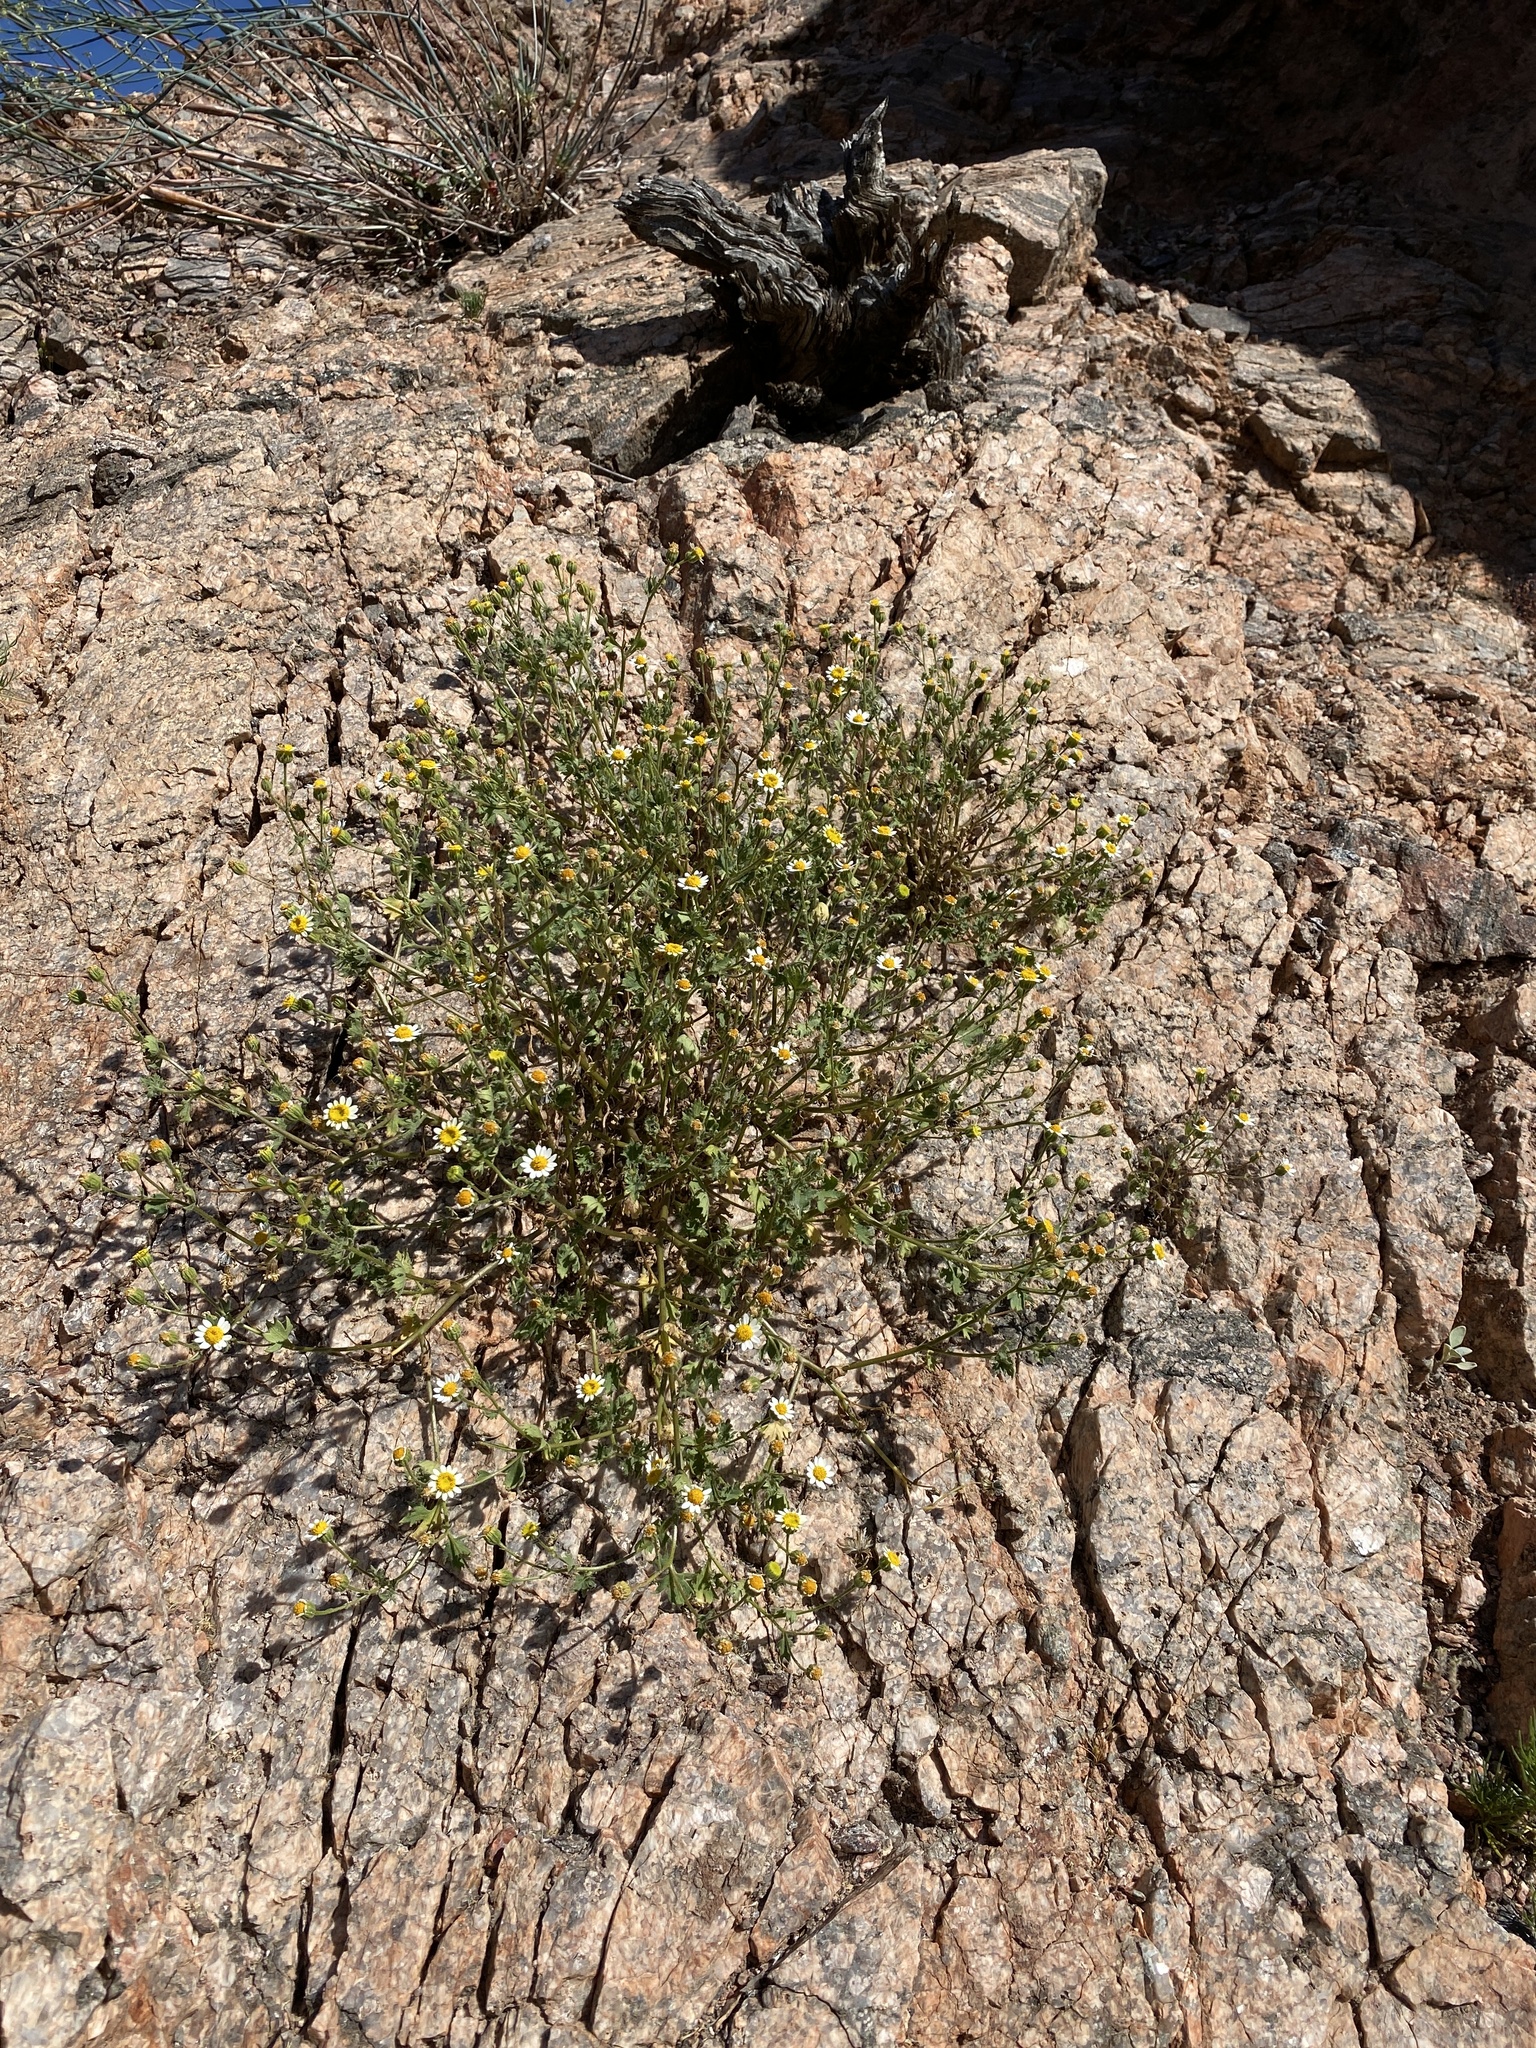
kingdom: Plantae
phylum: Tracheophyta
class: Magnoliopsida
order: Asterales
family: Asteraceae
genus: Laphamia
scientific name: Laphamia emoryi
